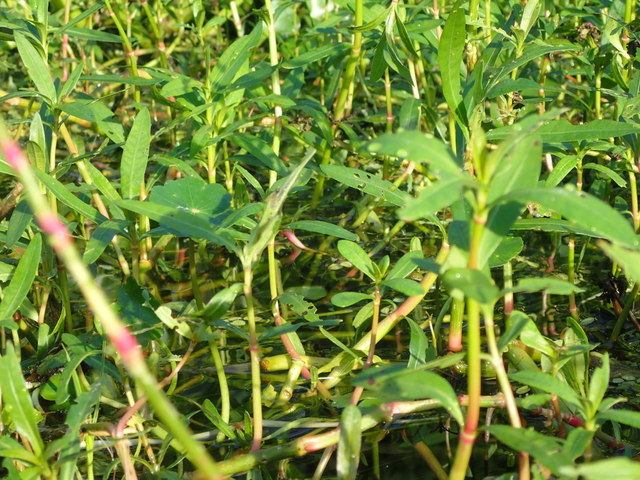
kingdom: Plantae
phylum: Tracheophyta
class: Magnoliopsida
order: Caryophyllales
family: Amaranthaceae
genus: Alternanthera
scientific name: Alternanthera philoxeroides
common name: Alligatorweed
